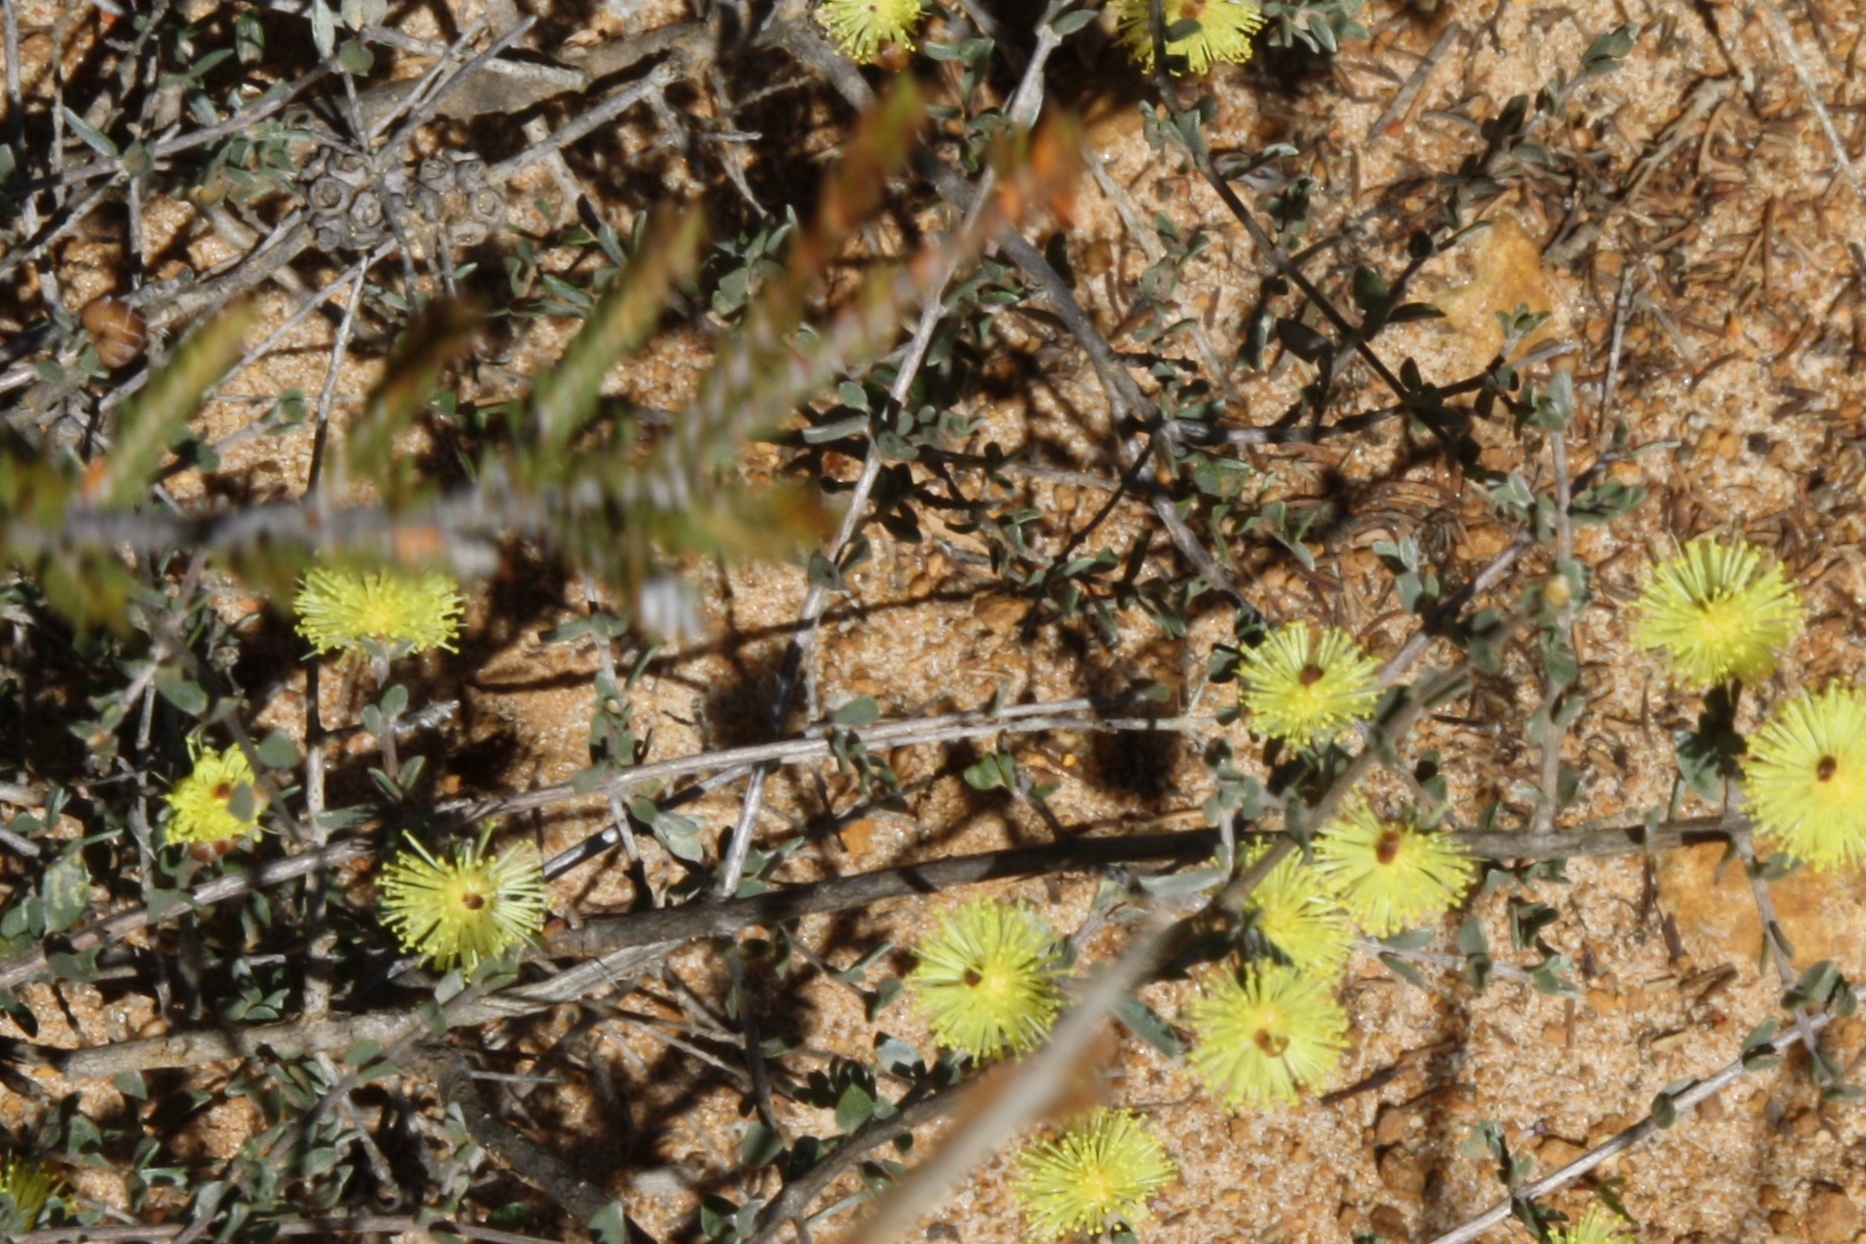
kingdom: Plantae
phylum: Tracheophyta
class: Magnoliopsida
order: Myrtales
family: Myrtaceae
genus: Melaleuca
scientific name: Melaleuca aurea
